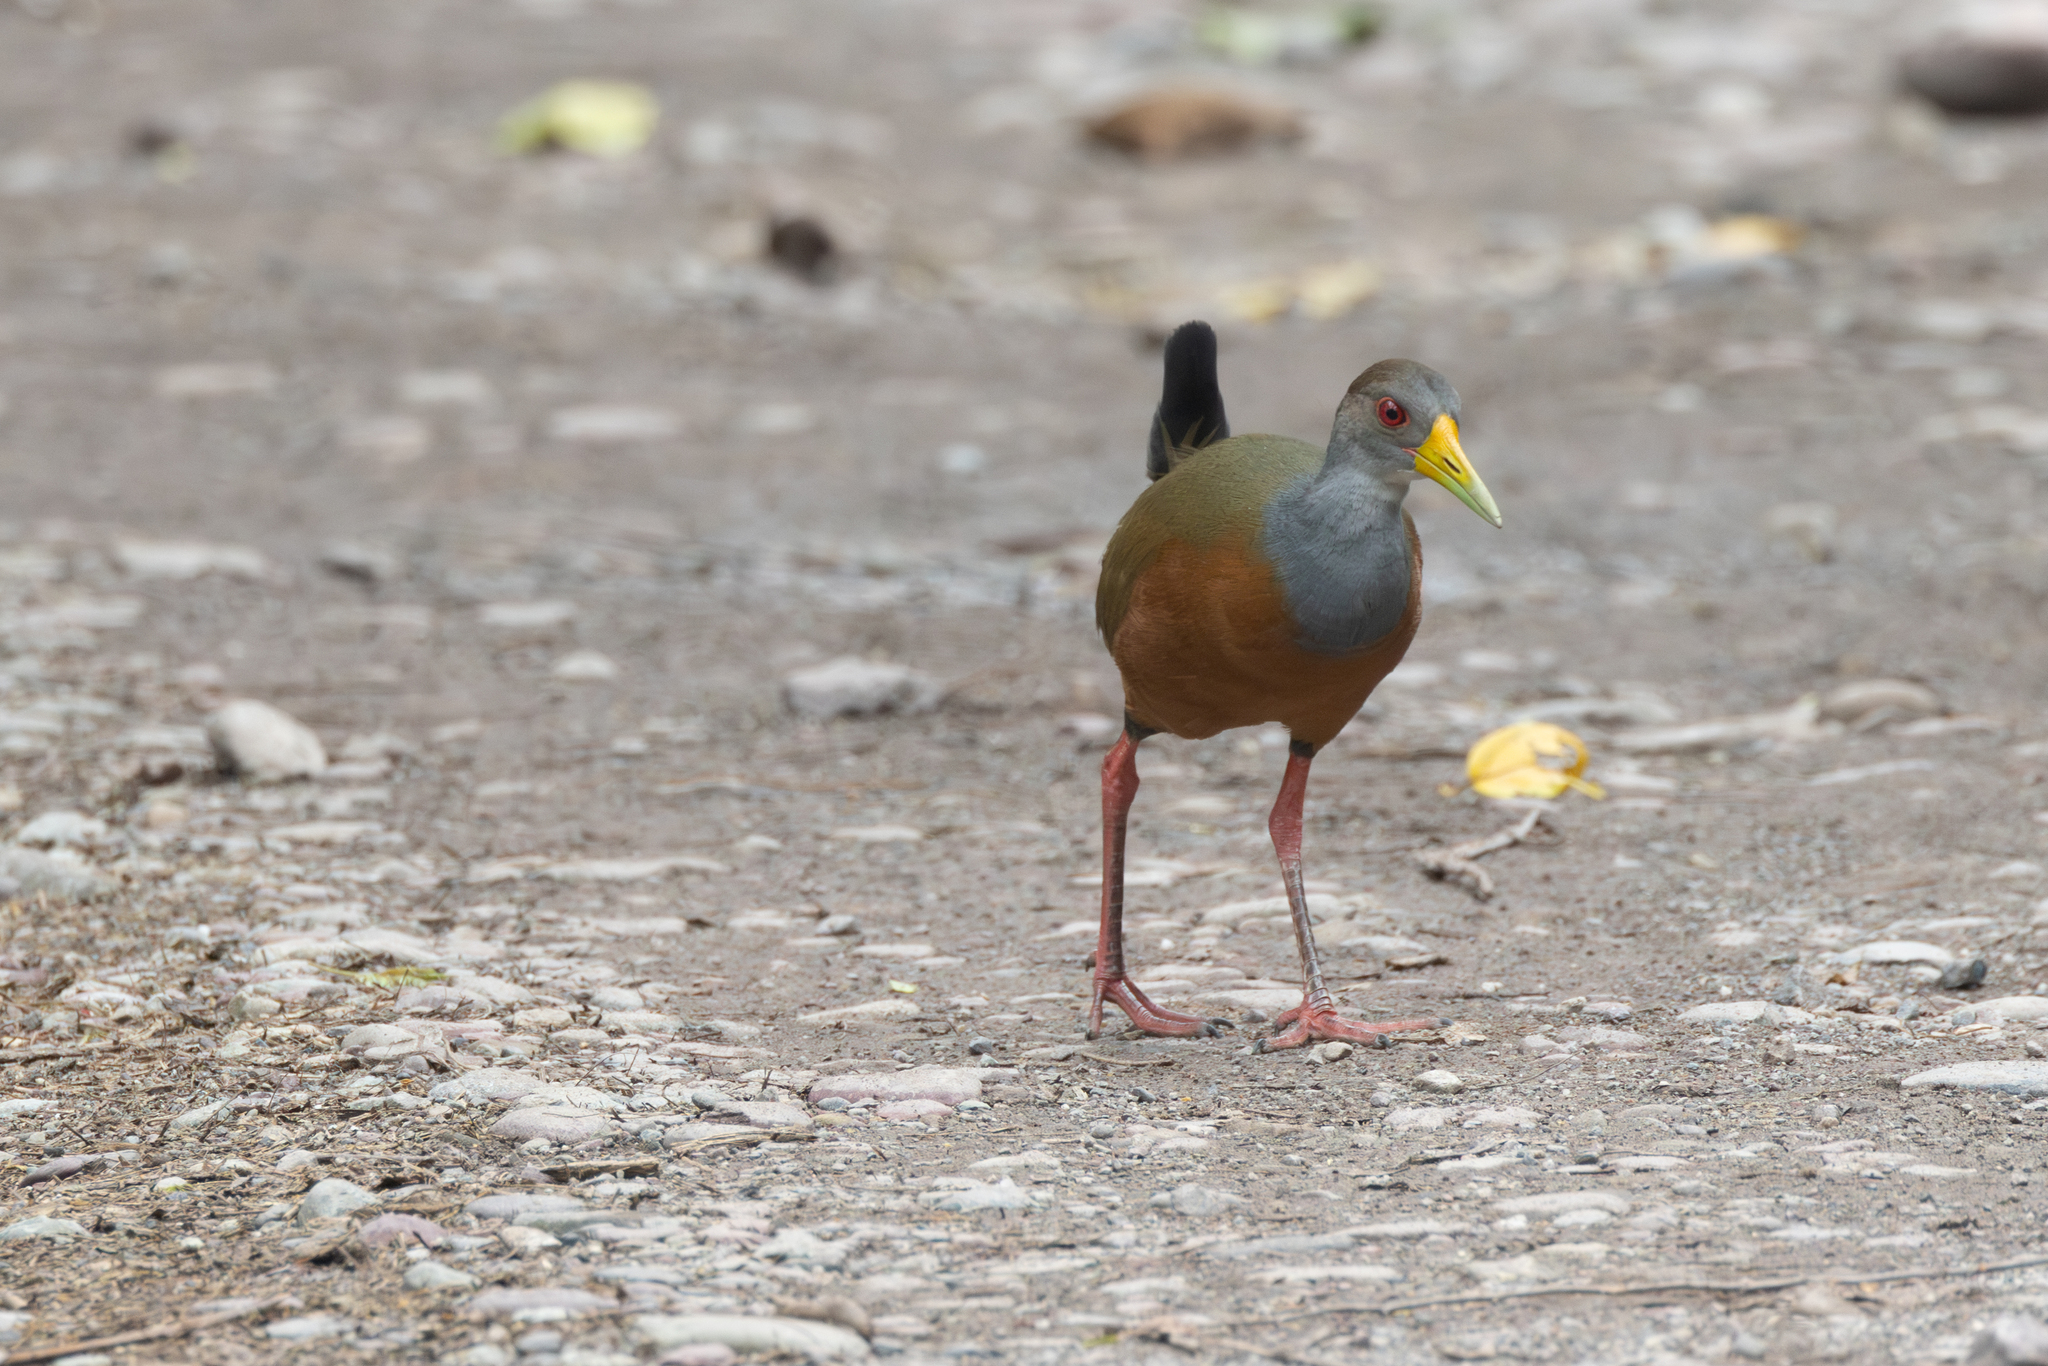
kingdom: Animalia
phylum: Chordata
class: Aves
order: Gruiformes
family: Rallidae
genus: Aramides
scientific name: Aramides cajanea
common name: Gray-necked wood-rail
